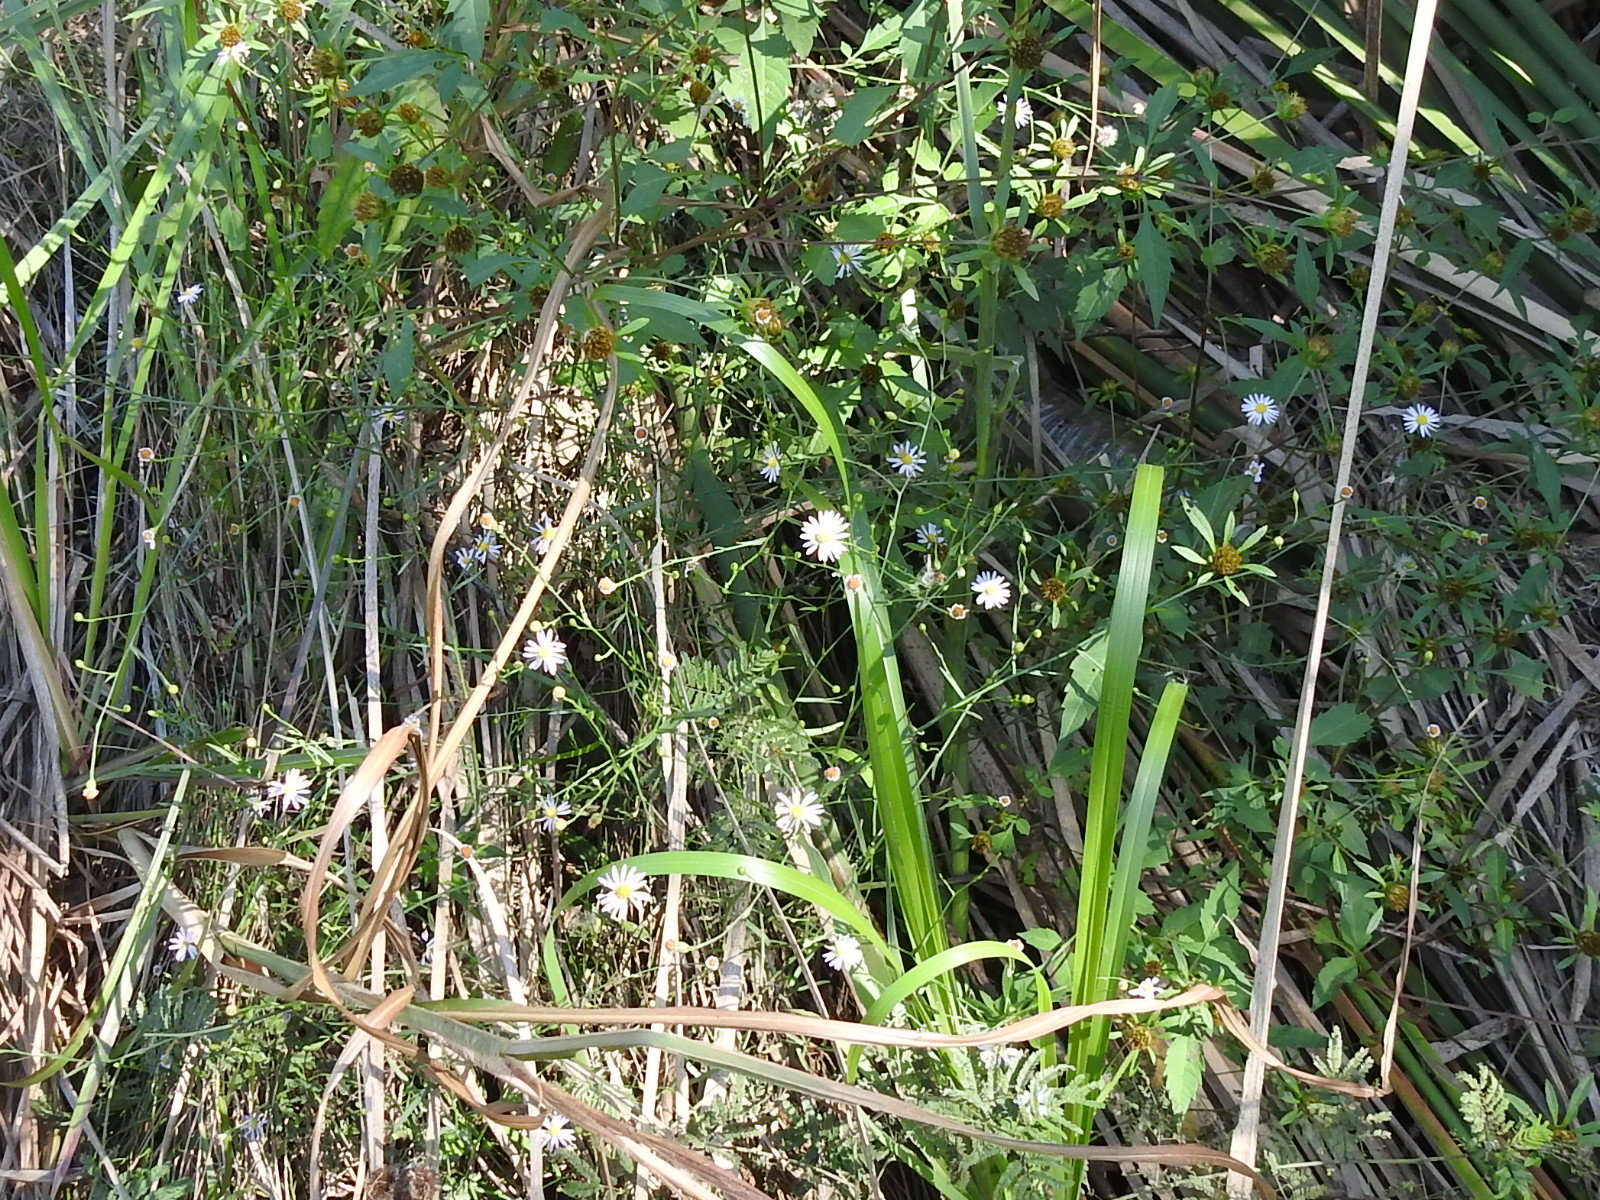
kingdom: Plantae
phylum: Tracheophyta
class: Magnoliopsida
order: Asterales
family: Asteraceae
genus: Symphyotrichum
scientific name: Symphyotrichum divaricatum
